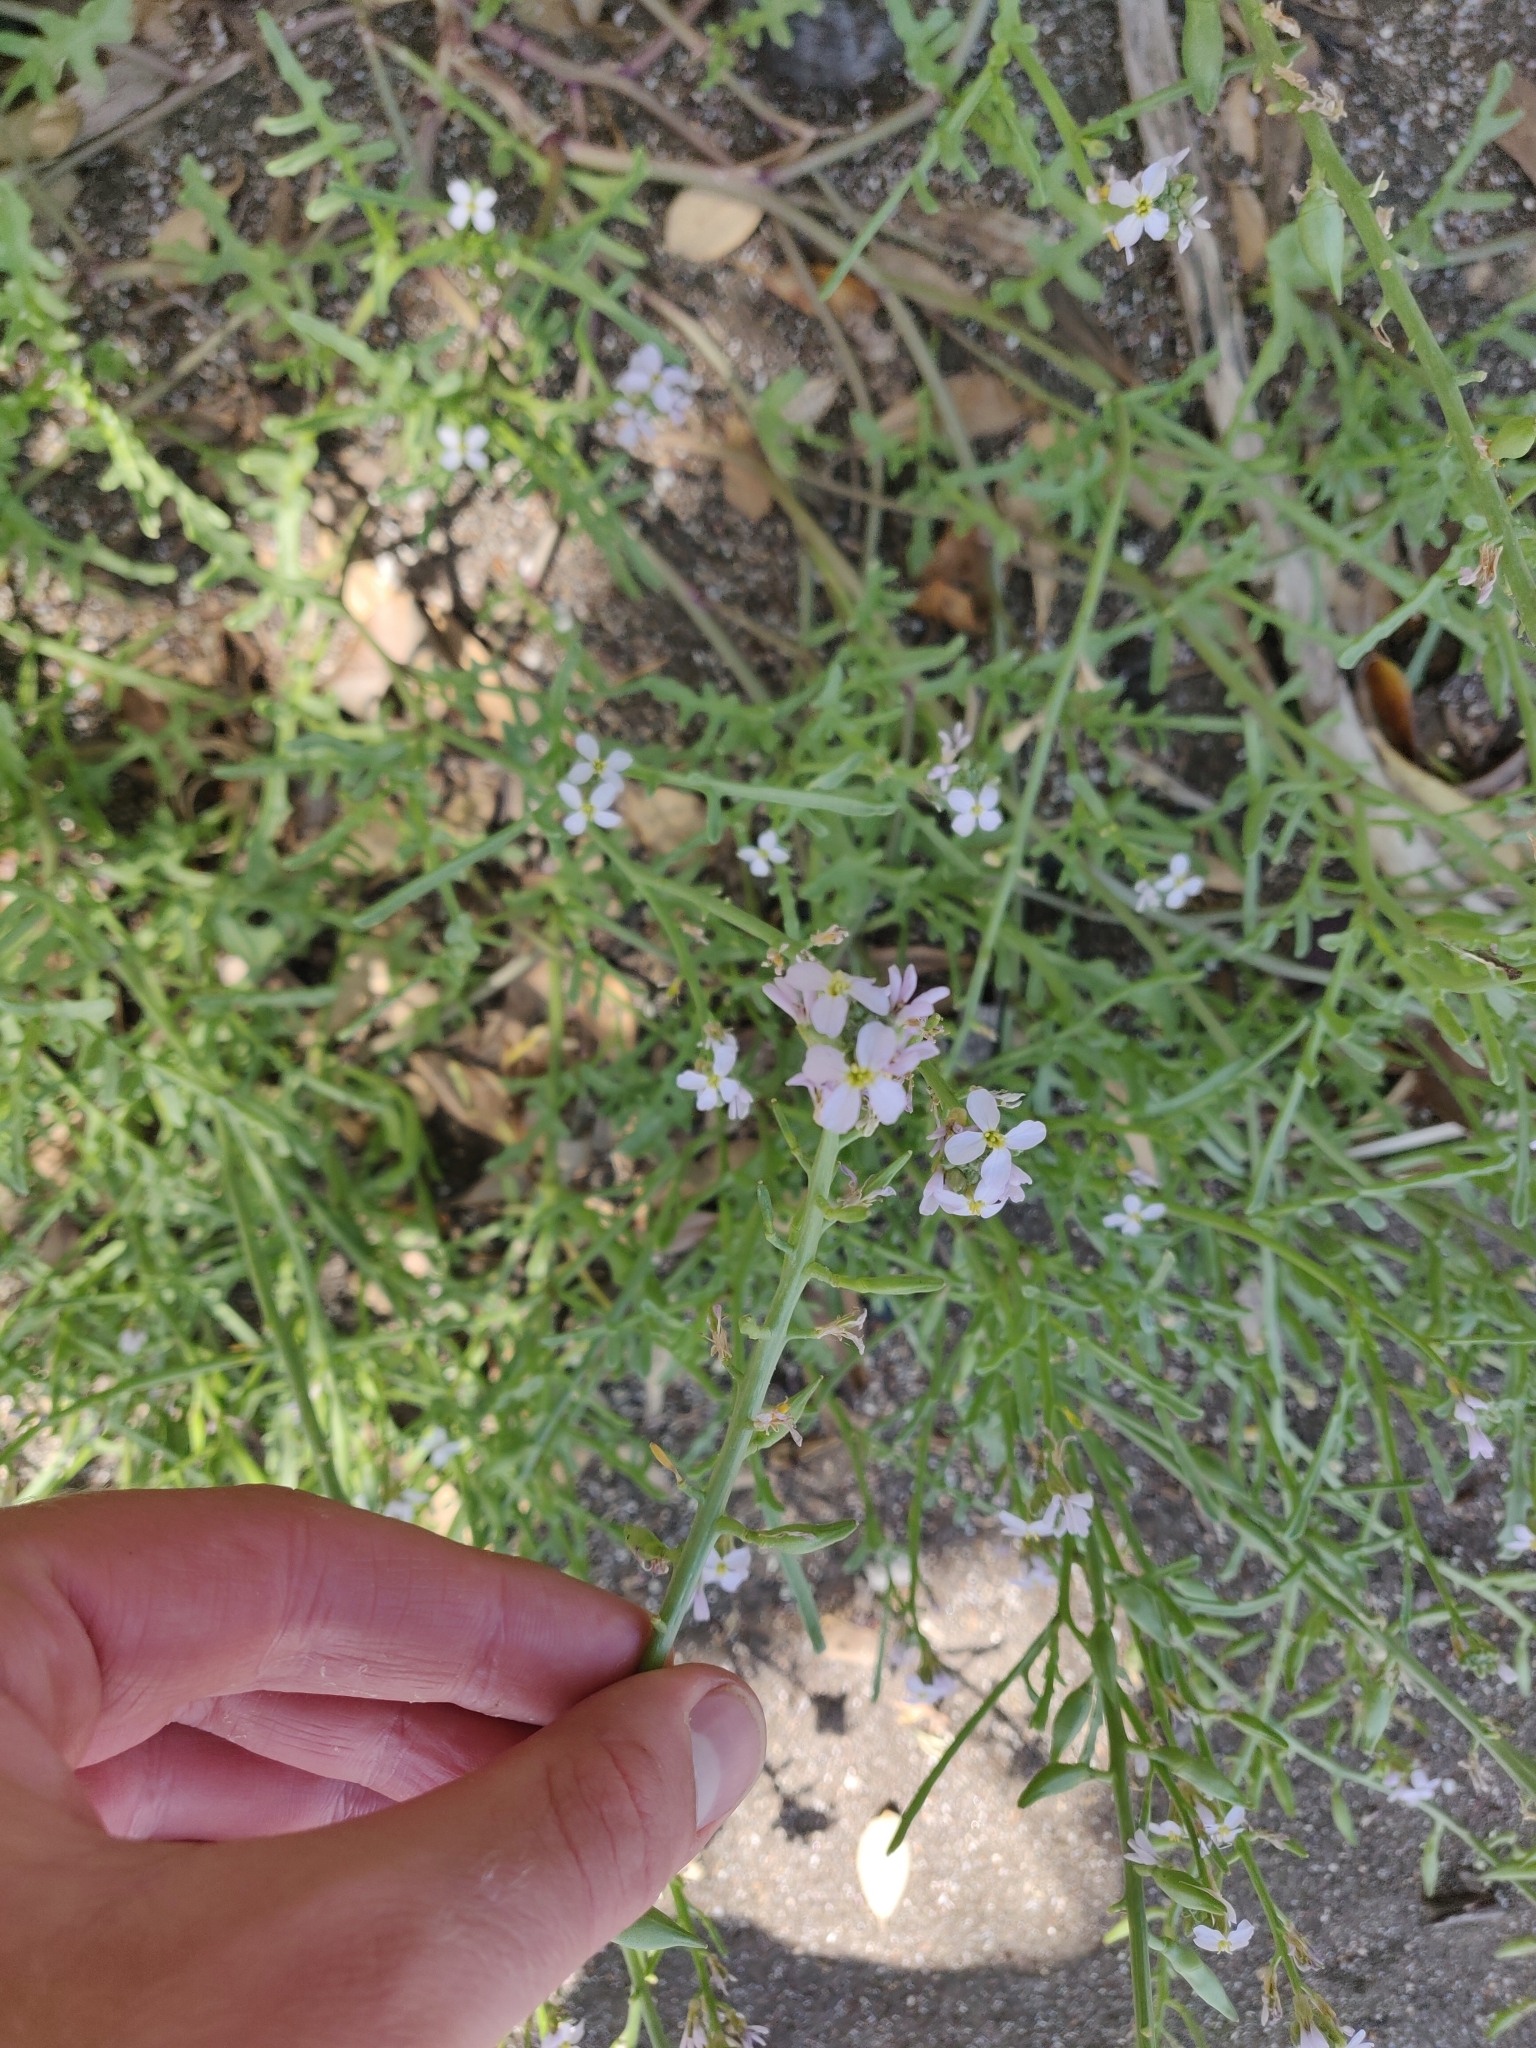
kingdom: Plantae
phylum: Tracheophyta
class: Magnoliopsida
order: Brassicales
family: Brassicaceae
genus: Cakile
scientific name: Cakile maritima
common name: Sea rocket
